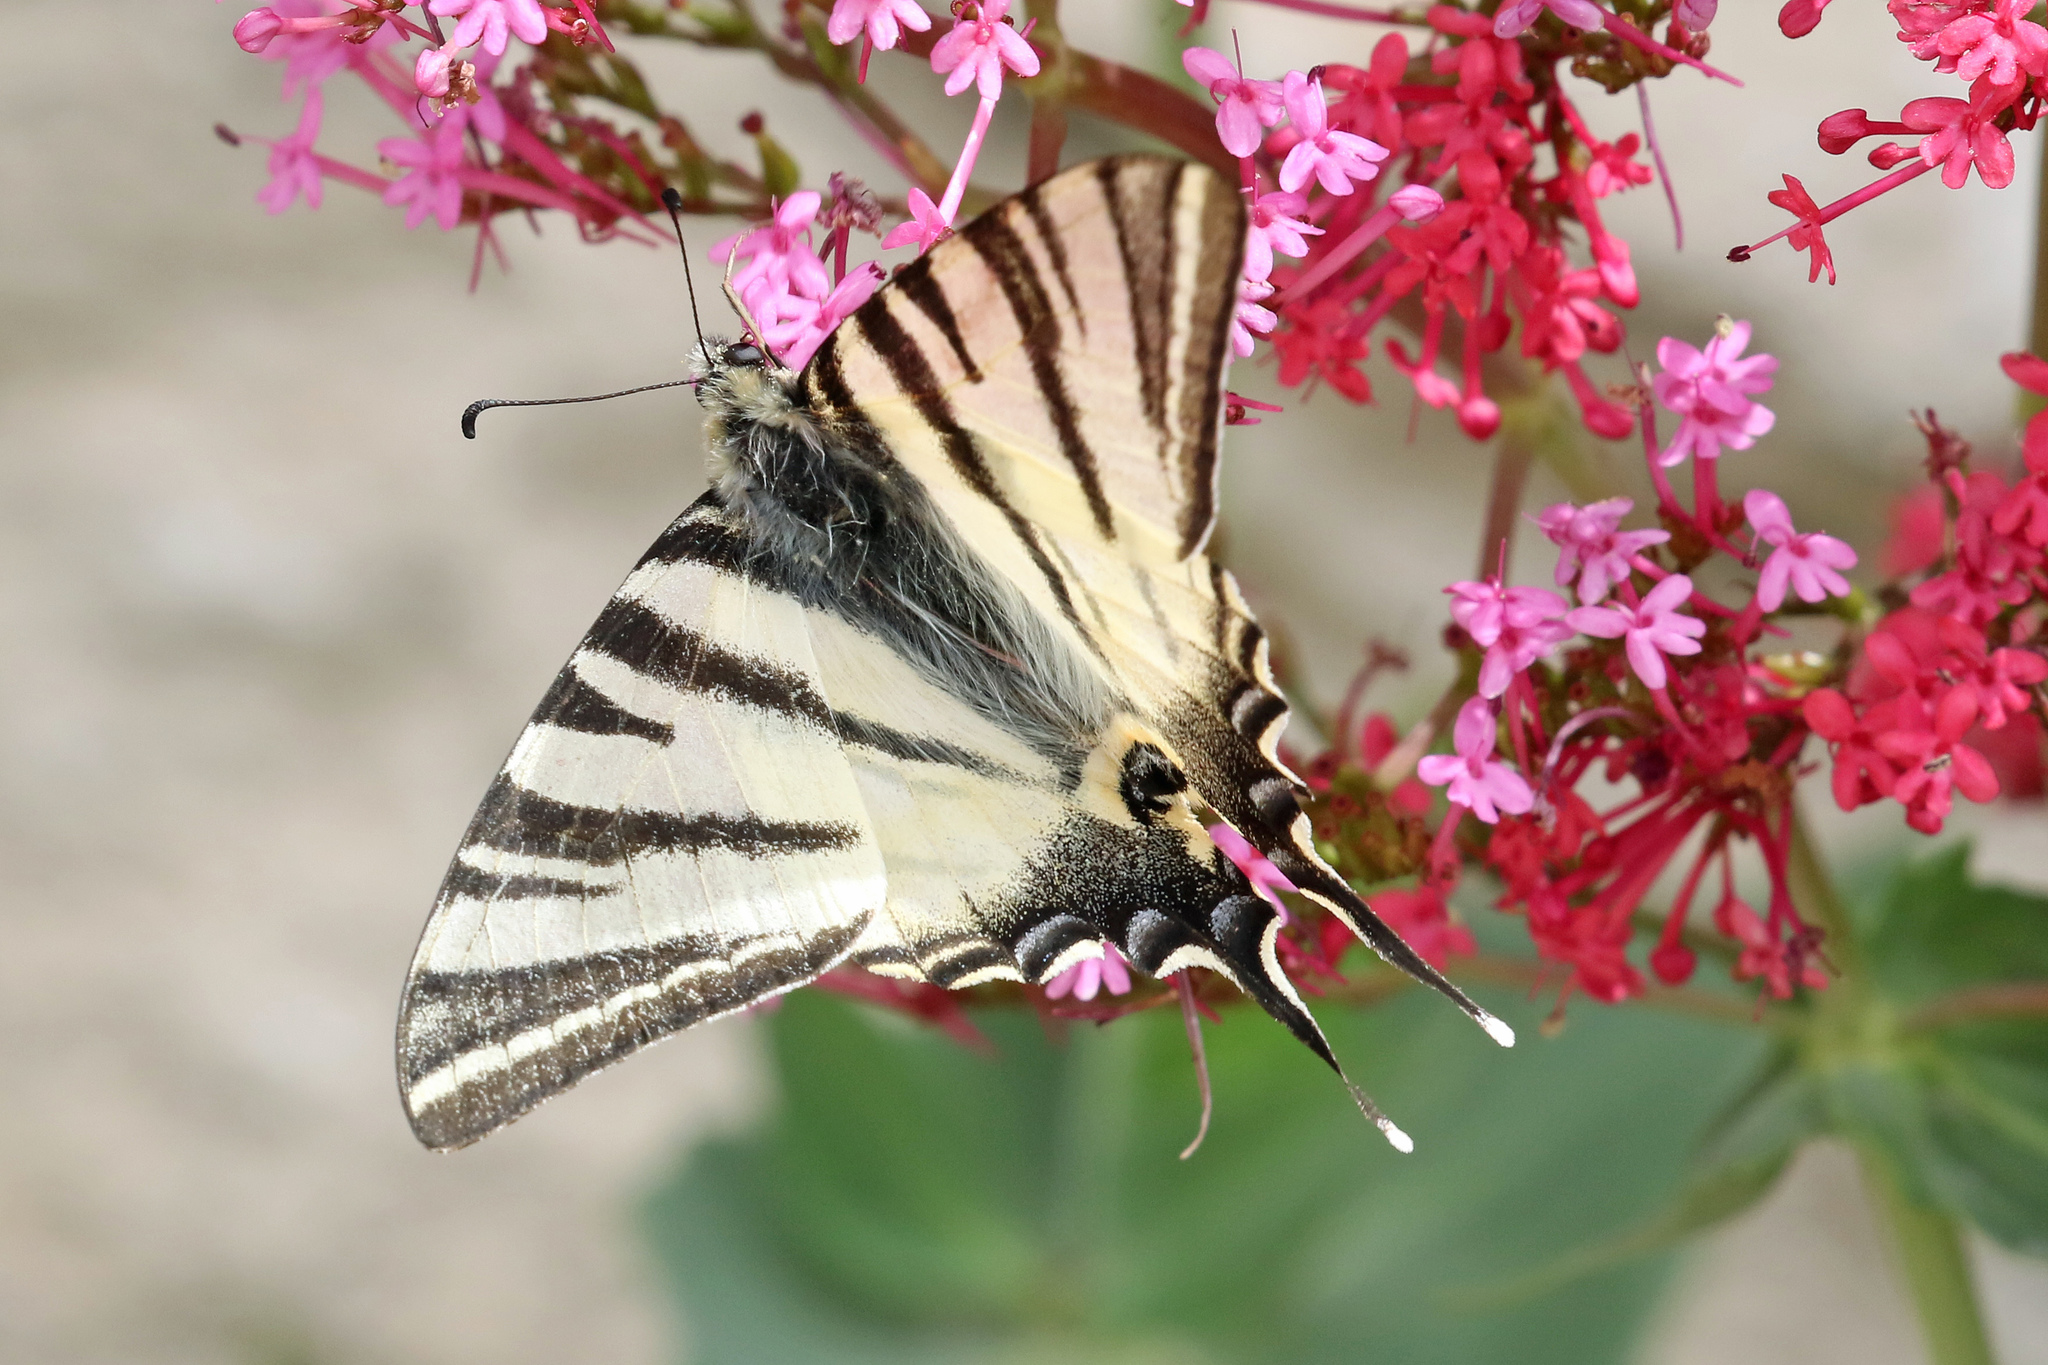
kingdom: Animalia
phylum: Arthropoda
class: Insecta
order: Lepidoptera
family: Papilionidae
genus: Iphiclides
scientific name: Iphiclides podalirius
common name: Scarce swallowtail
